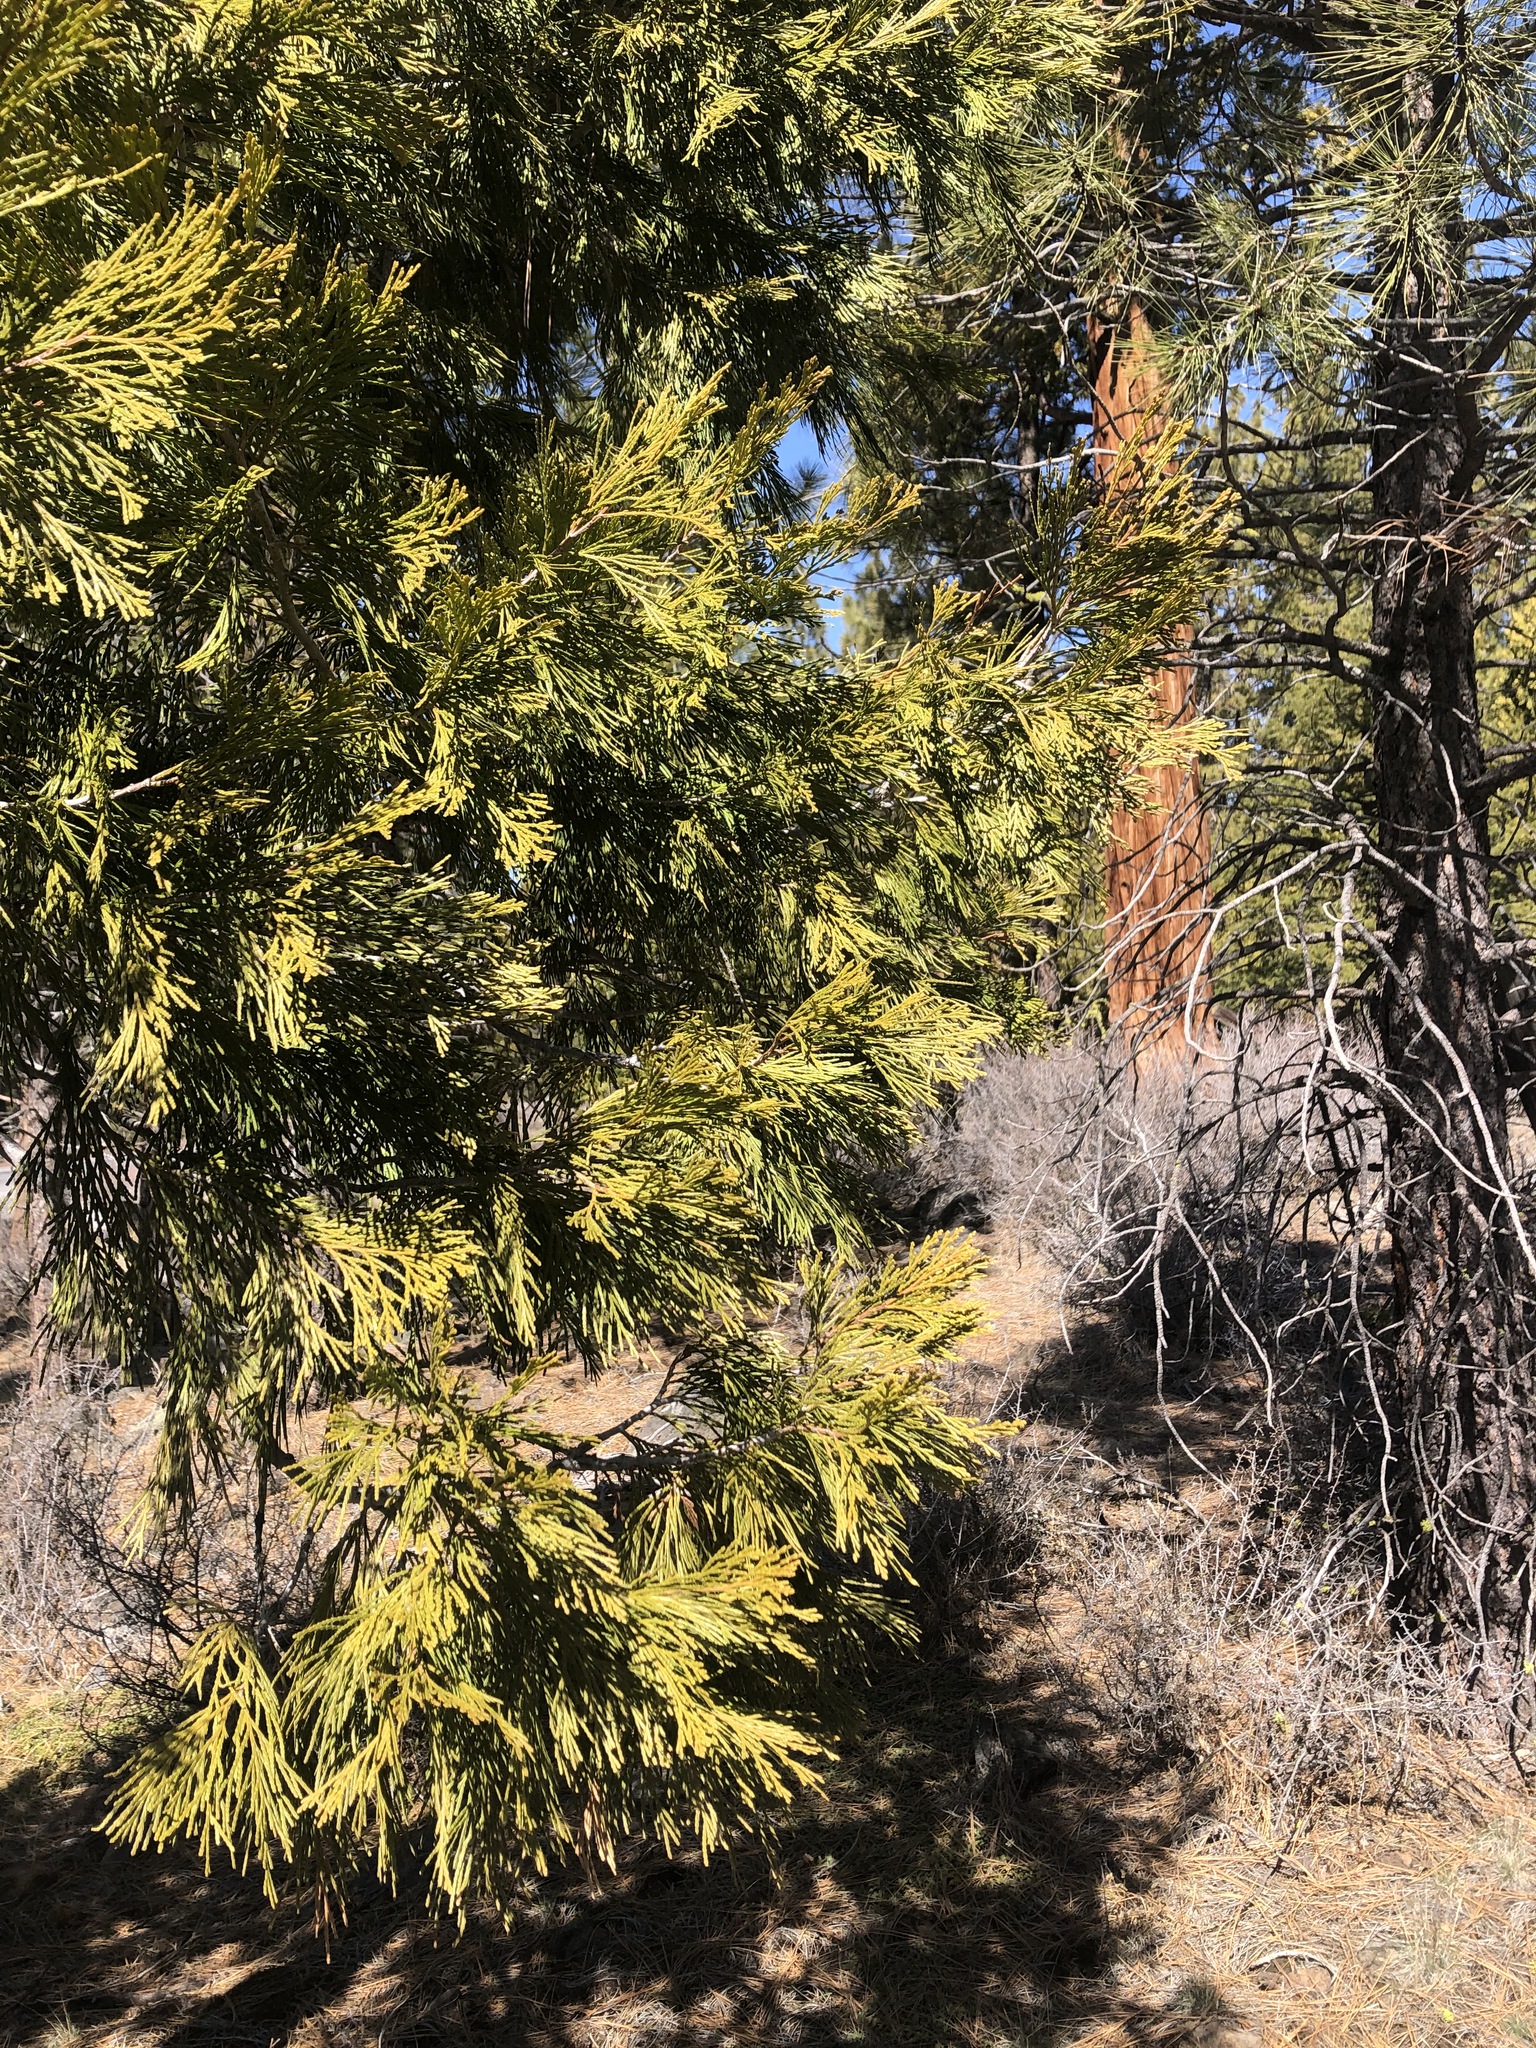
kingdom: Plantae
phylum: Tracheophyta
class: Pinopsida
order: Pinales
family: Cupressaceae
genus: Calocedrus
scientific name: Calocedrus decurrens
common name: Californian incense-cedar
